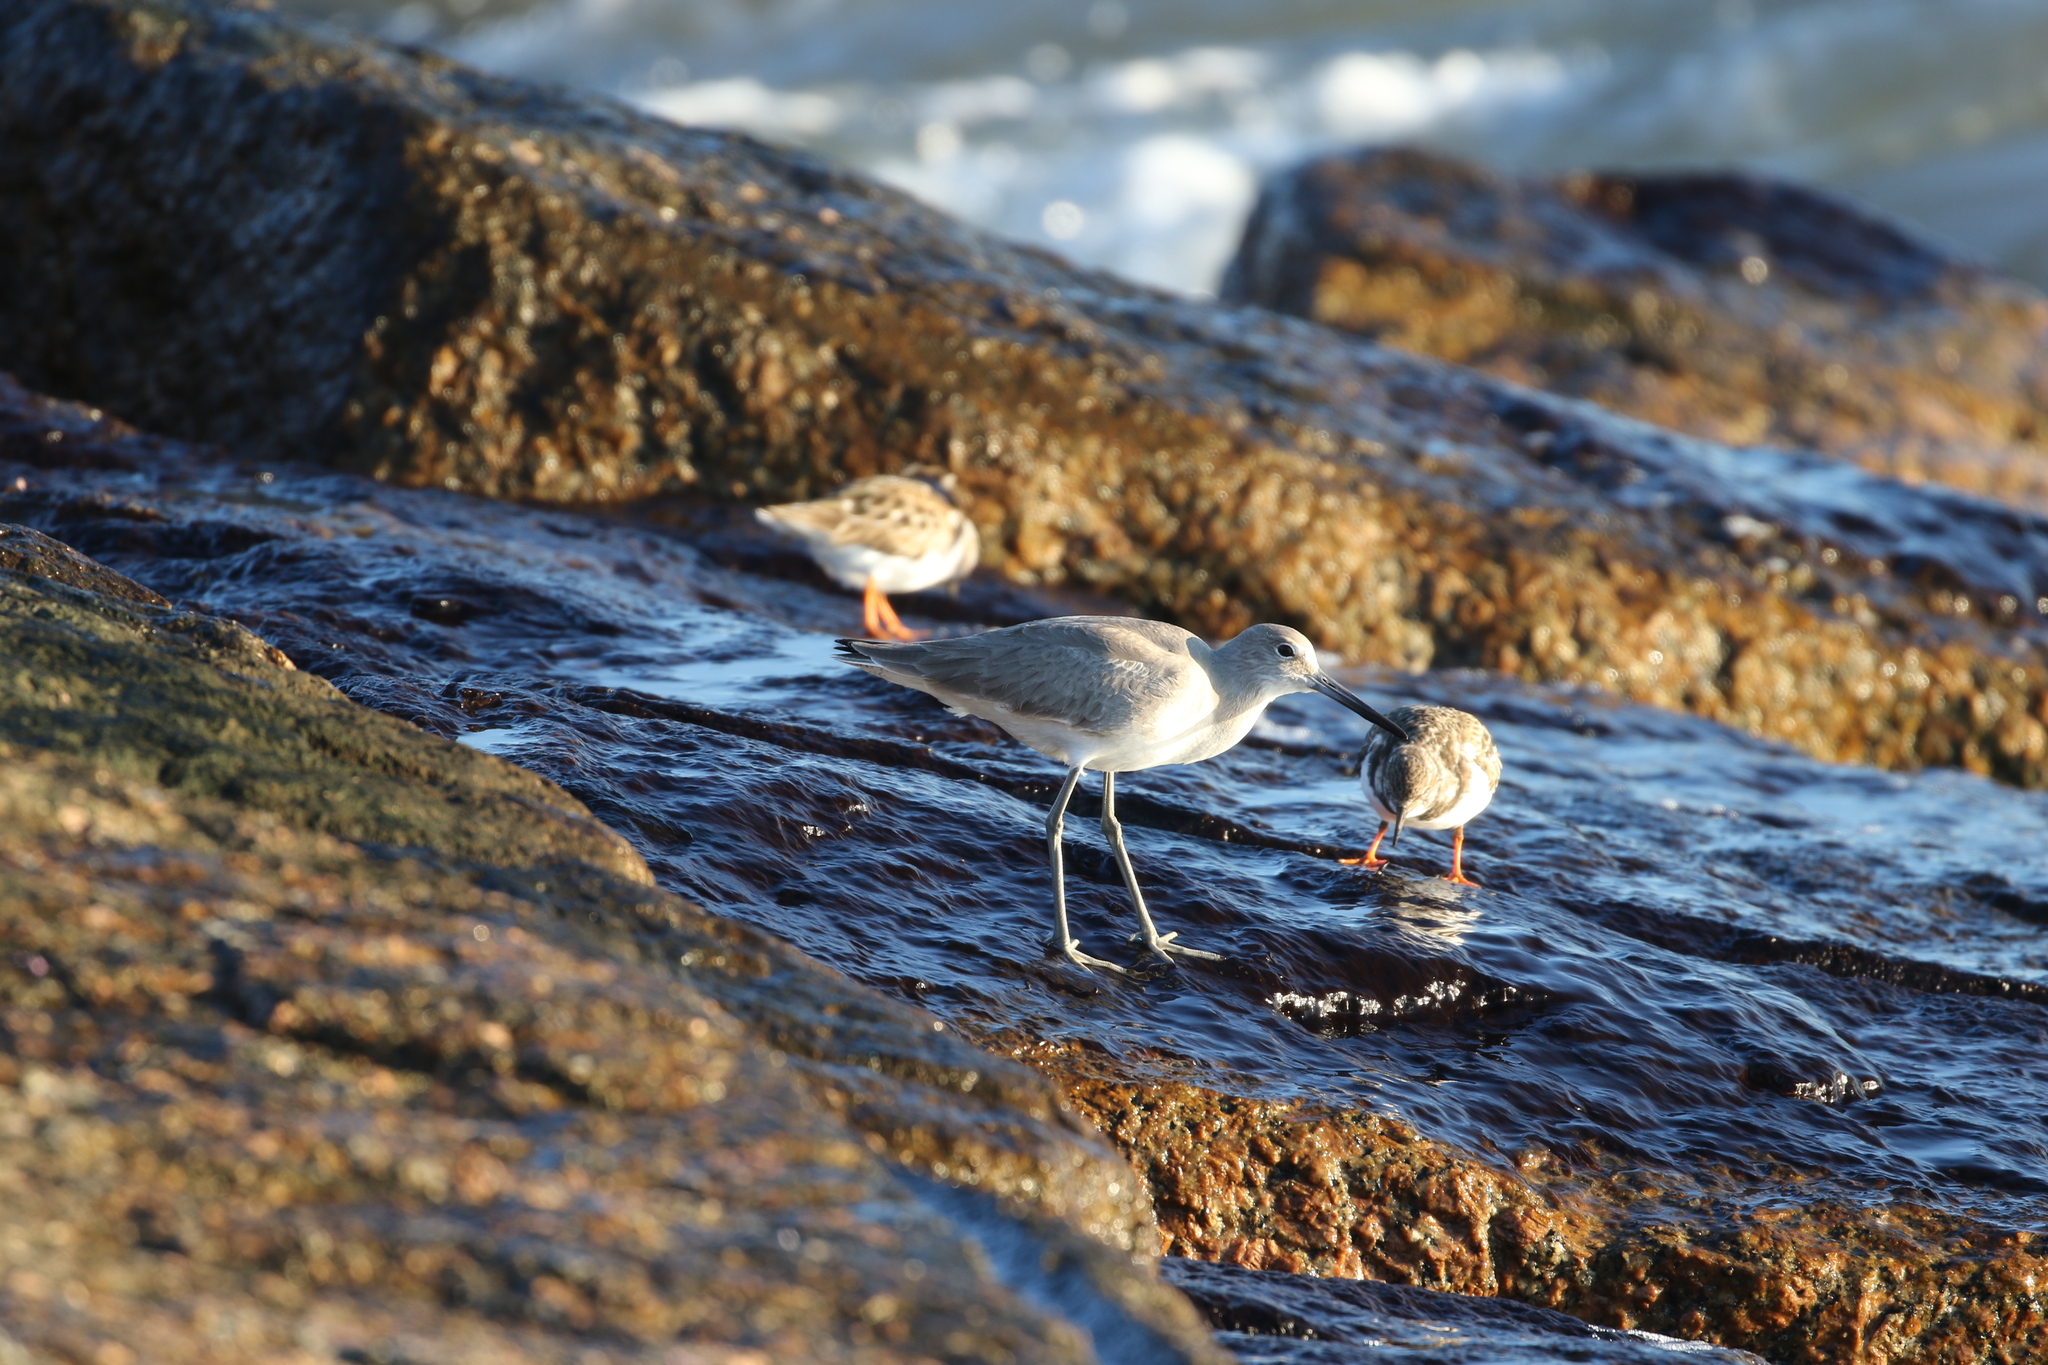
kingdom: Animalia
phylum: Chordata
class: Aves
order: Charadriiformes
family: Scolopacidae
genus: Arenaria
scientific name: Arenaria interpres
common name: Ruddy turnstone
